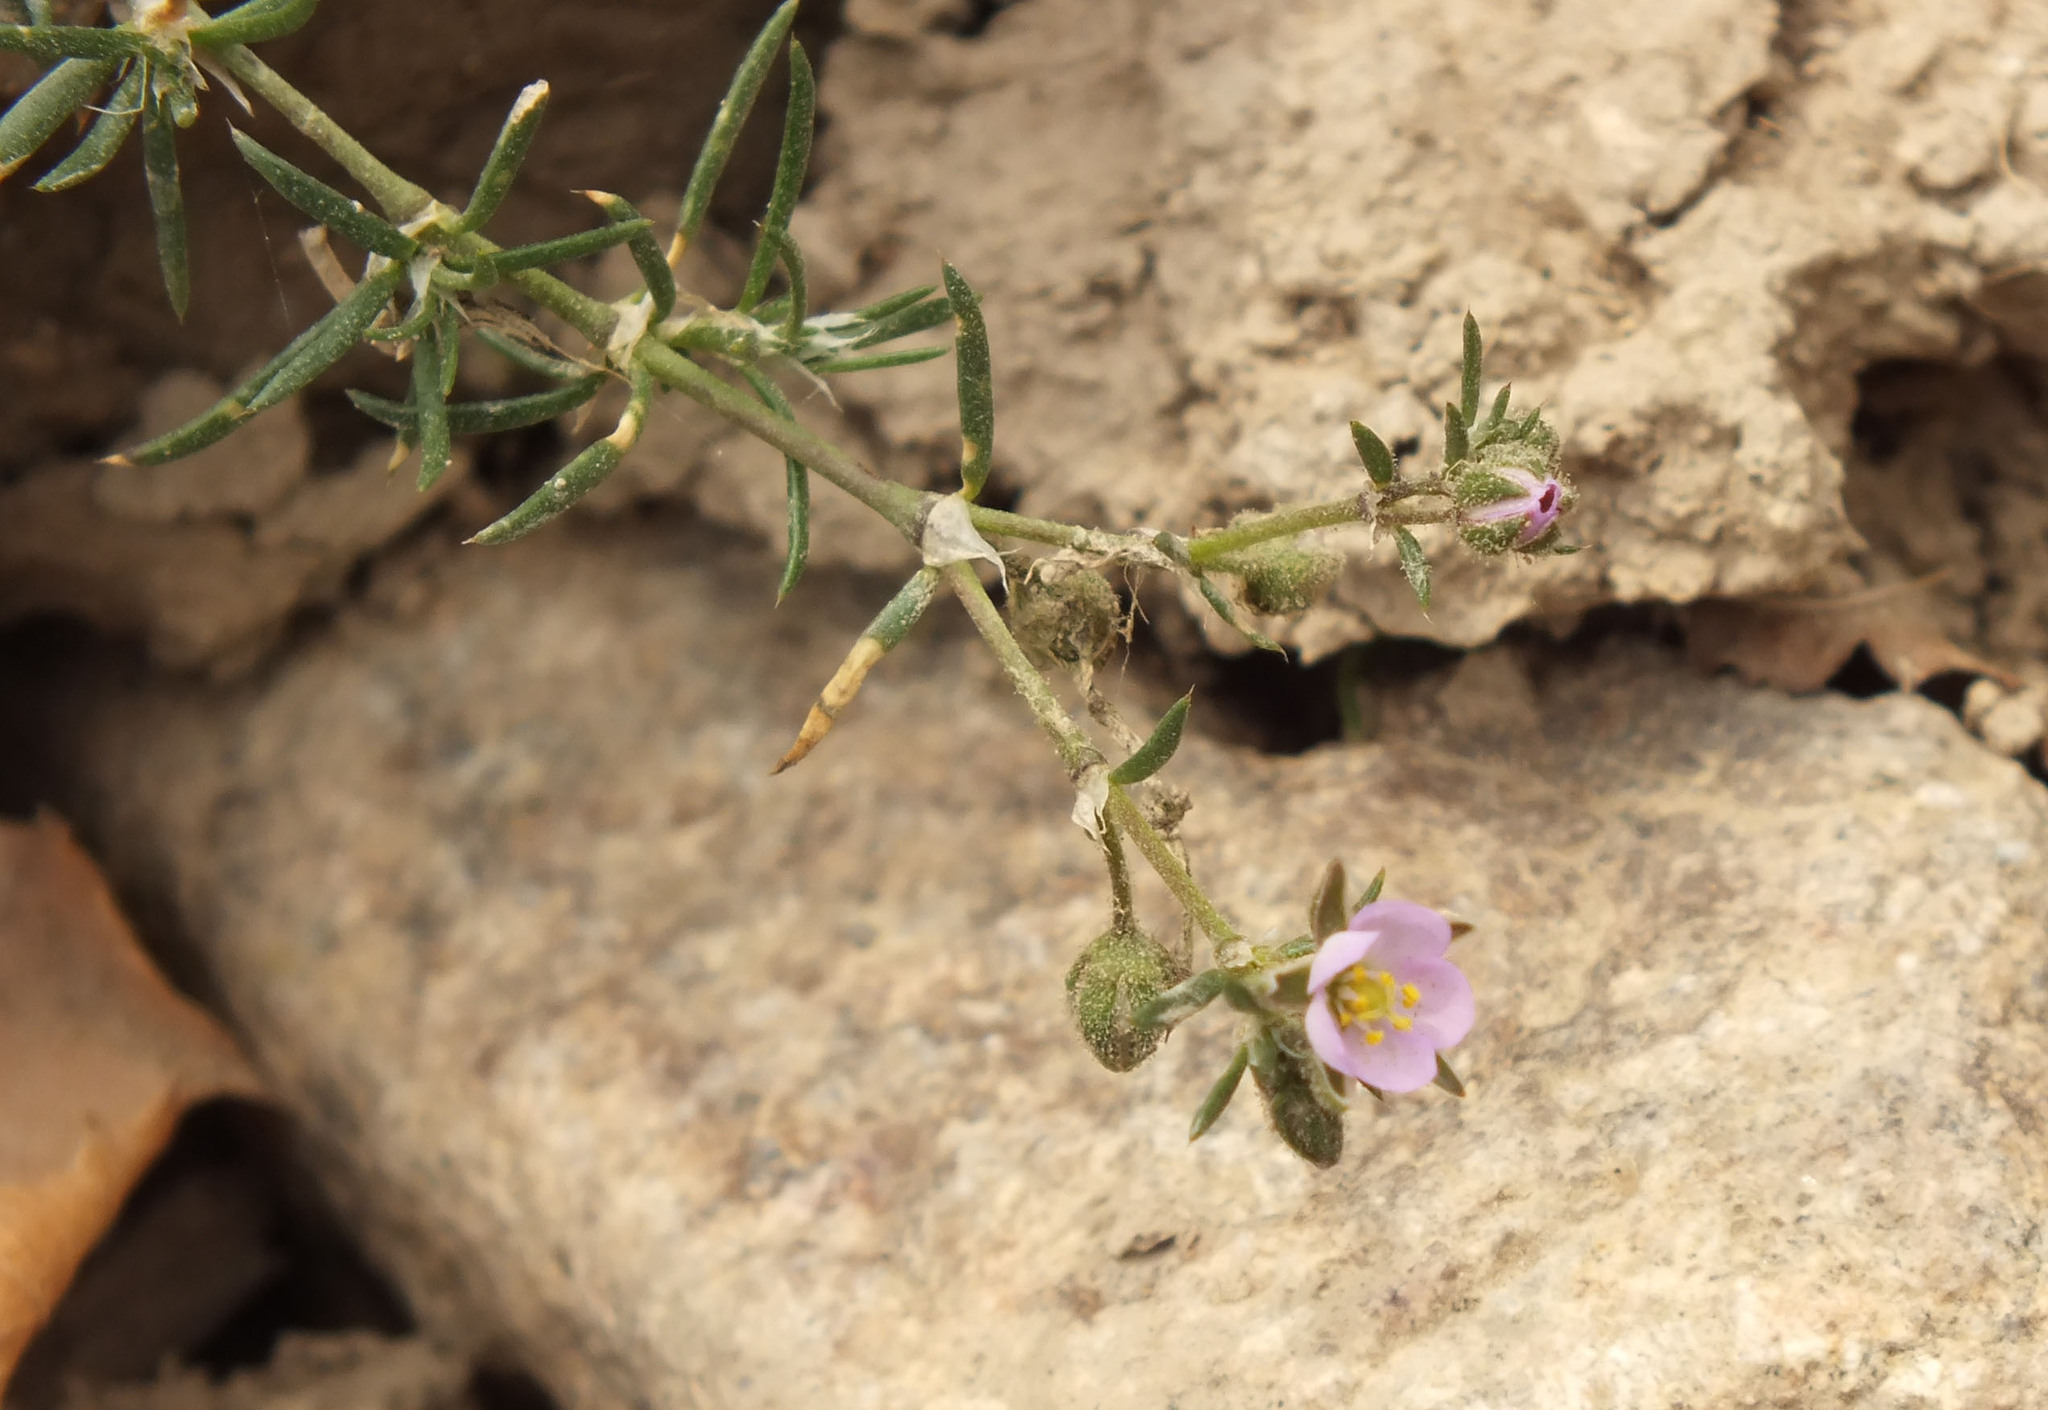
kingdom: Plantae
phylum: Tracheophyta
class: Magnoliopsida
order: Caryophyllales
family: Caryophyllaceae
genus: Spergularia
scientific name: Spergularia rubra
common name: Red sand-spurrey
